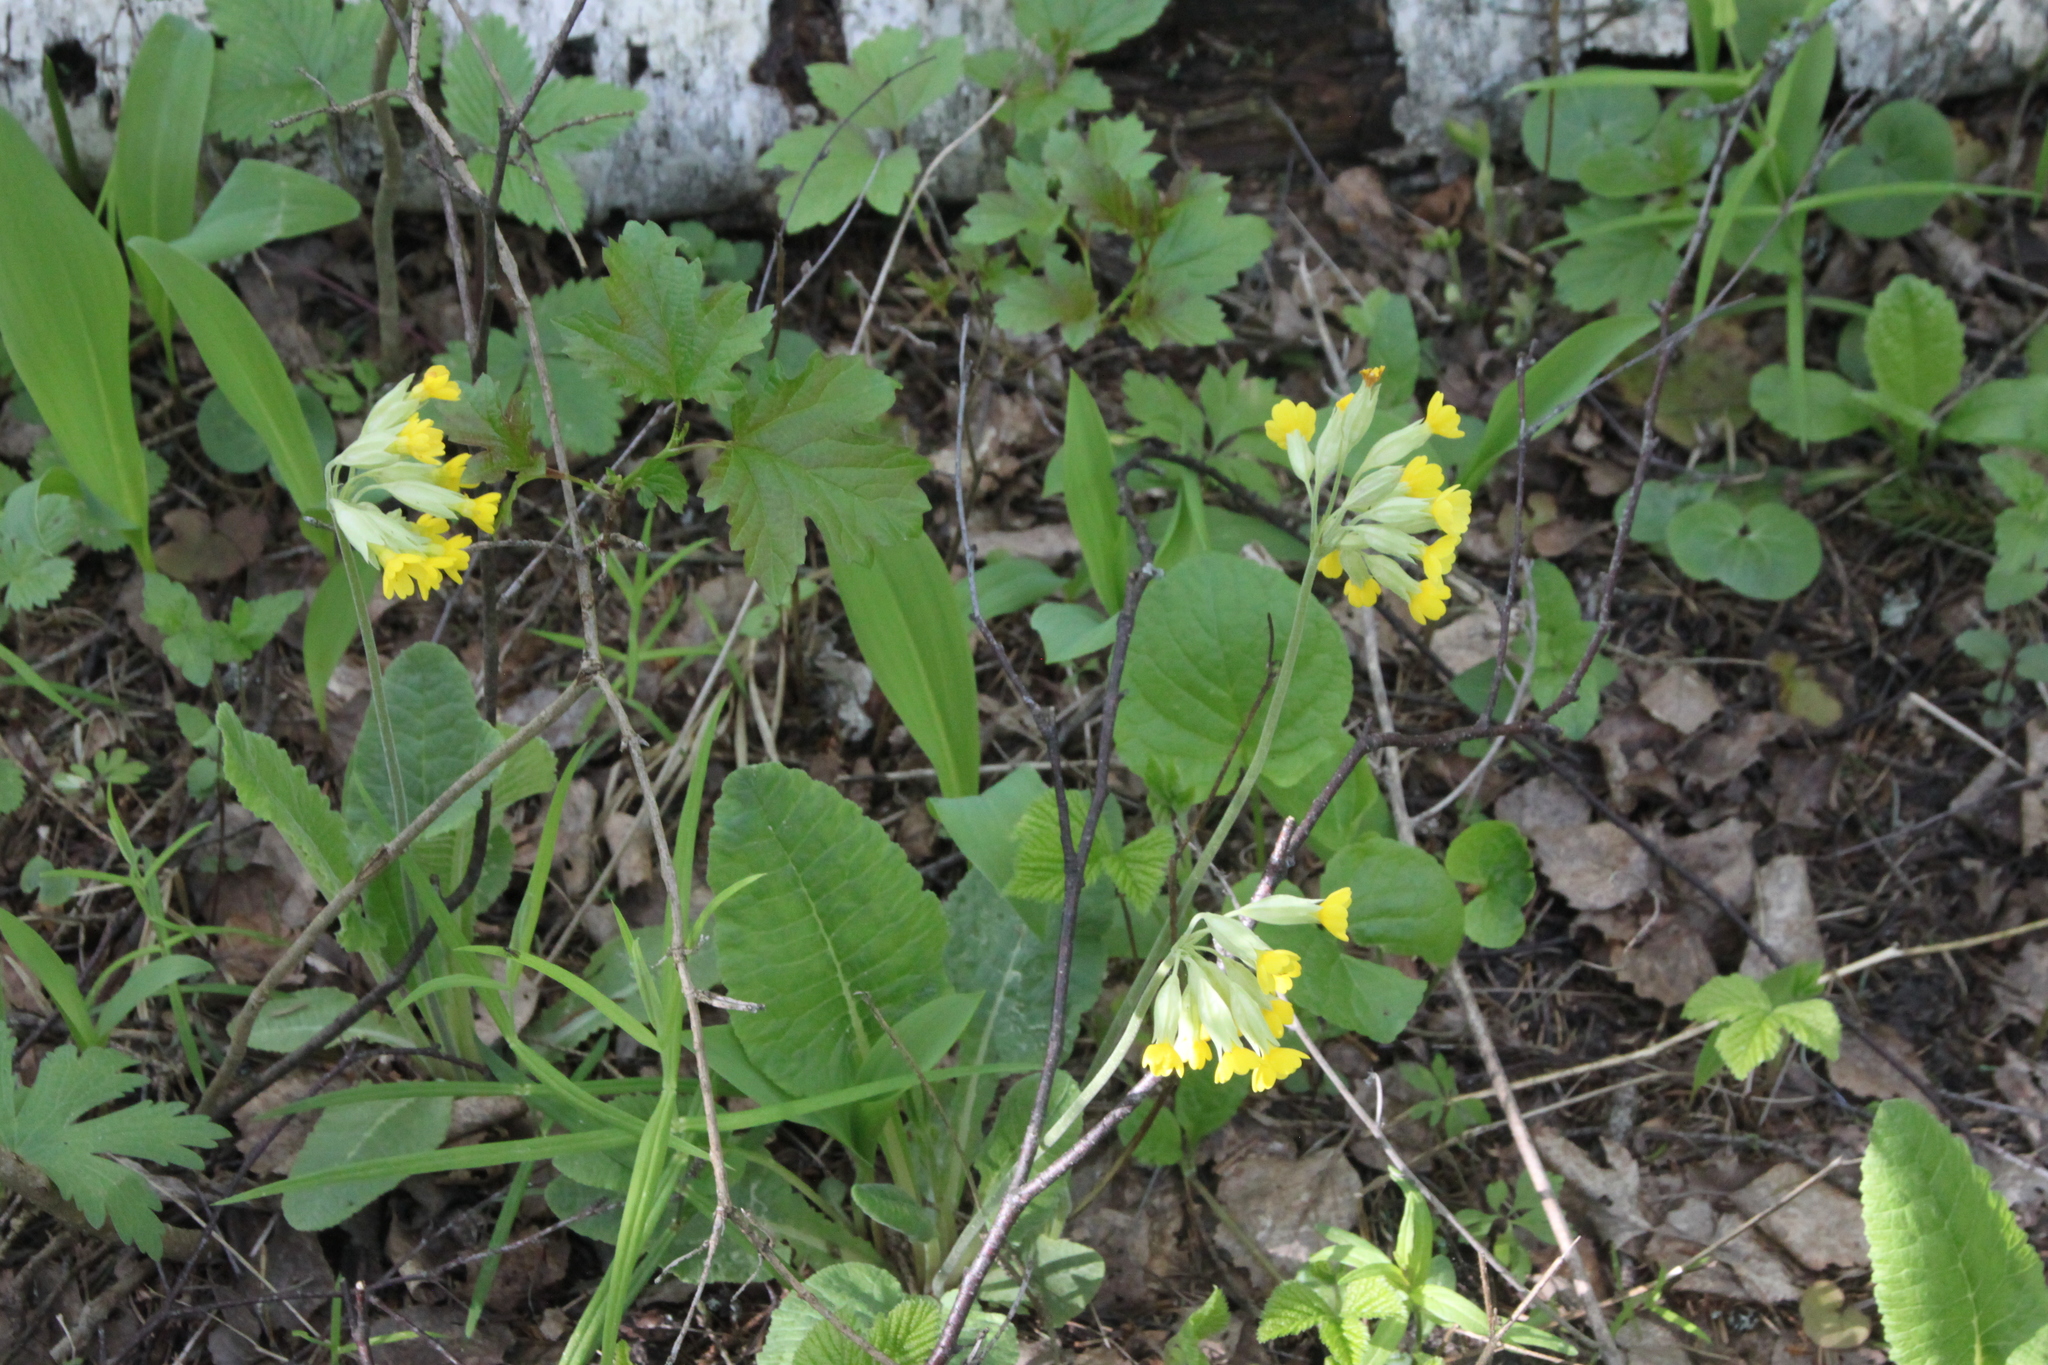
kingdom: Plantae
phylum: Tracheophyta
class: Magnoliopsida
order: Ericales
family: Primulaceae
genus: Primula
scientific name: Primula veris
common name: Cowslip
